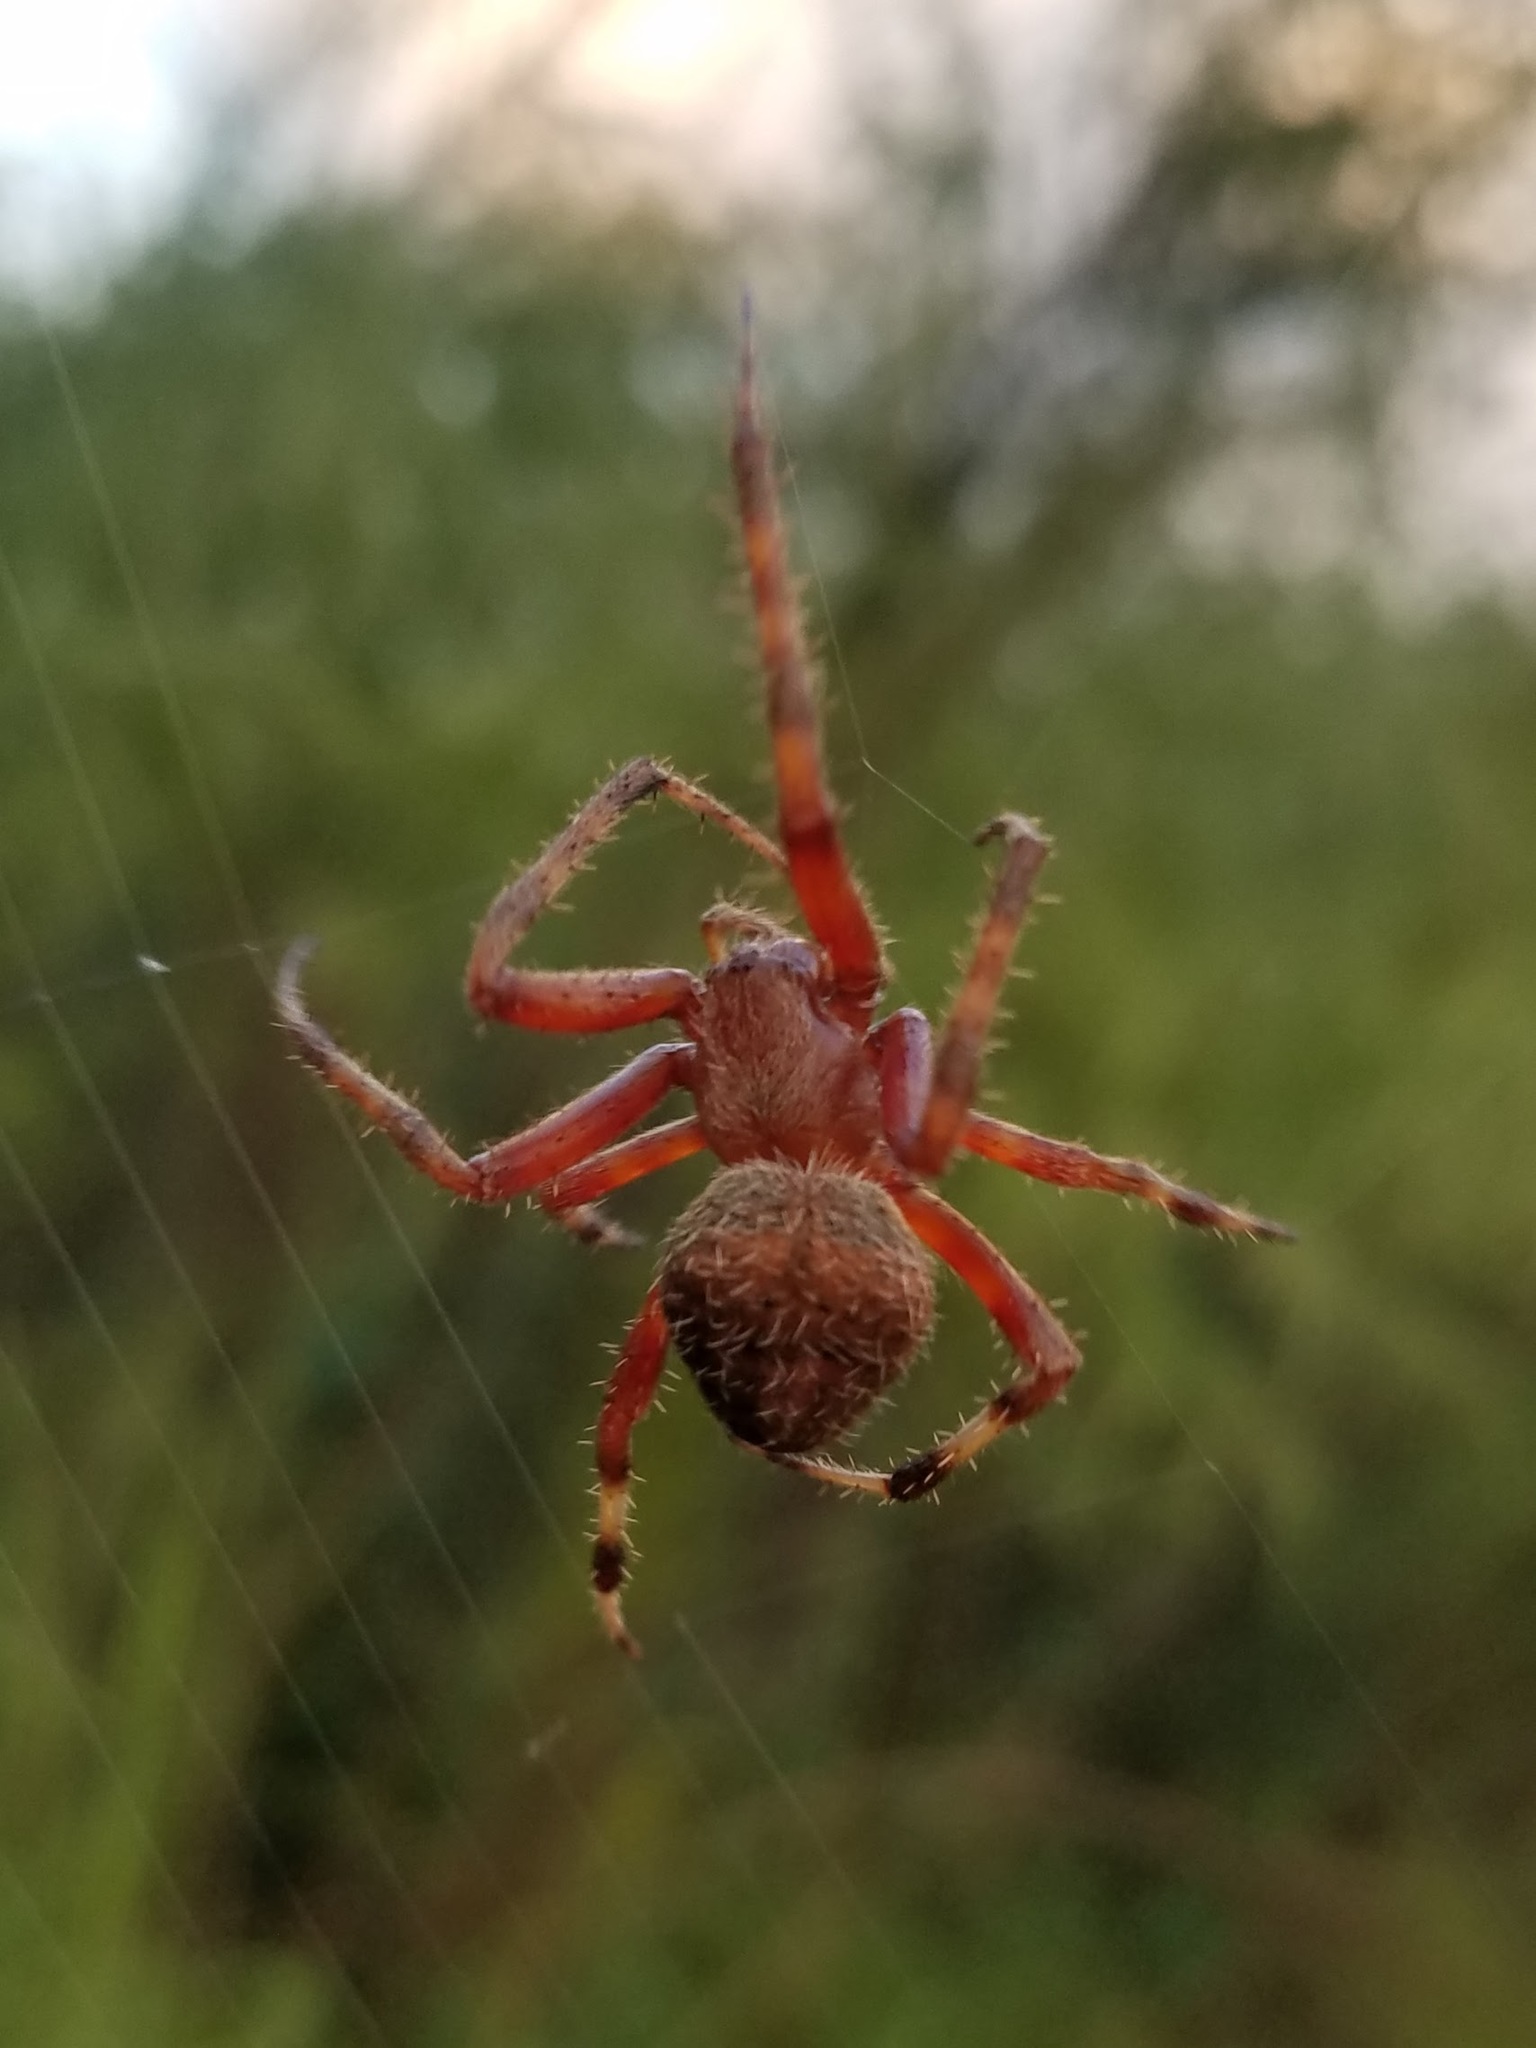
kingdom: Animalia
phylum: Arthropoda
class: Arachnida
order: Araneae
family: Araneidae
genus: Neoscona
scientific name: Neoscona domiciliorum
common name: Red-femured spotted orbweaver
